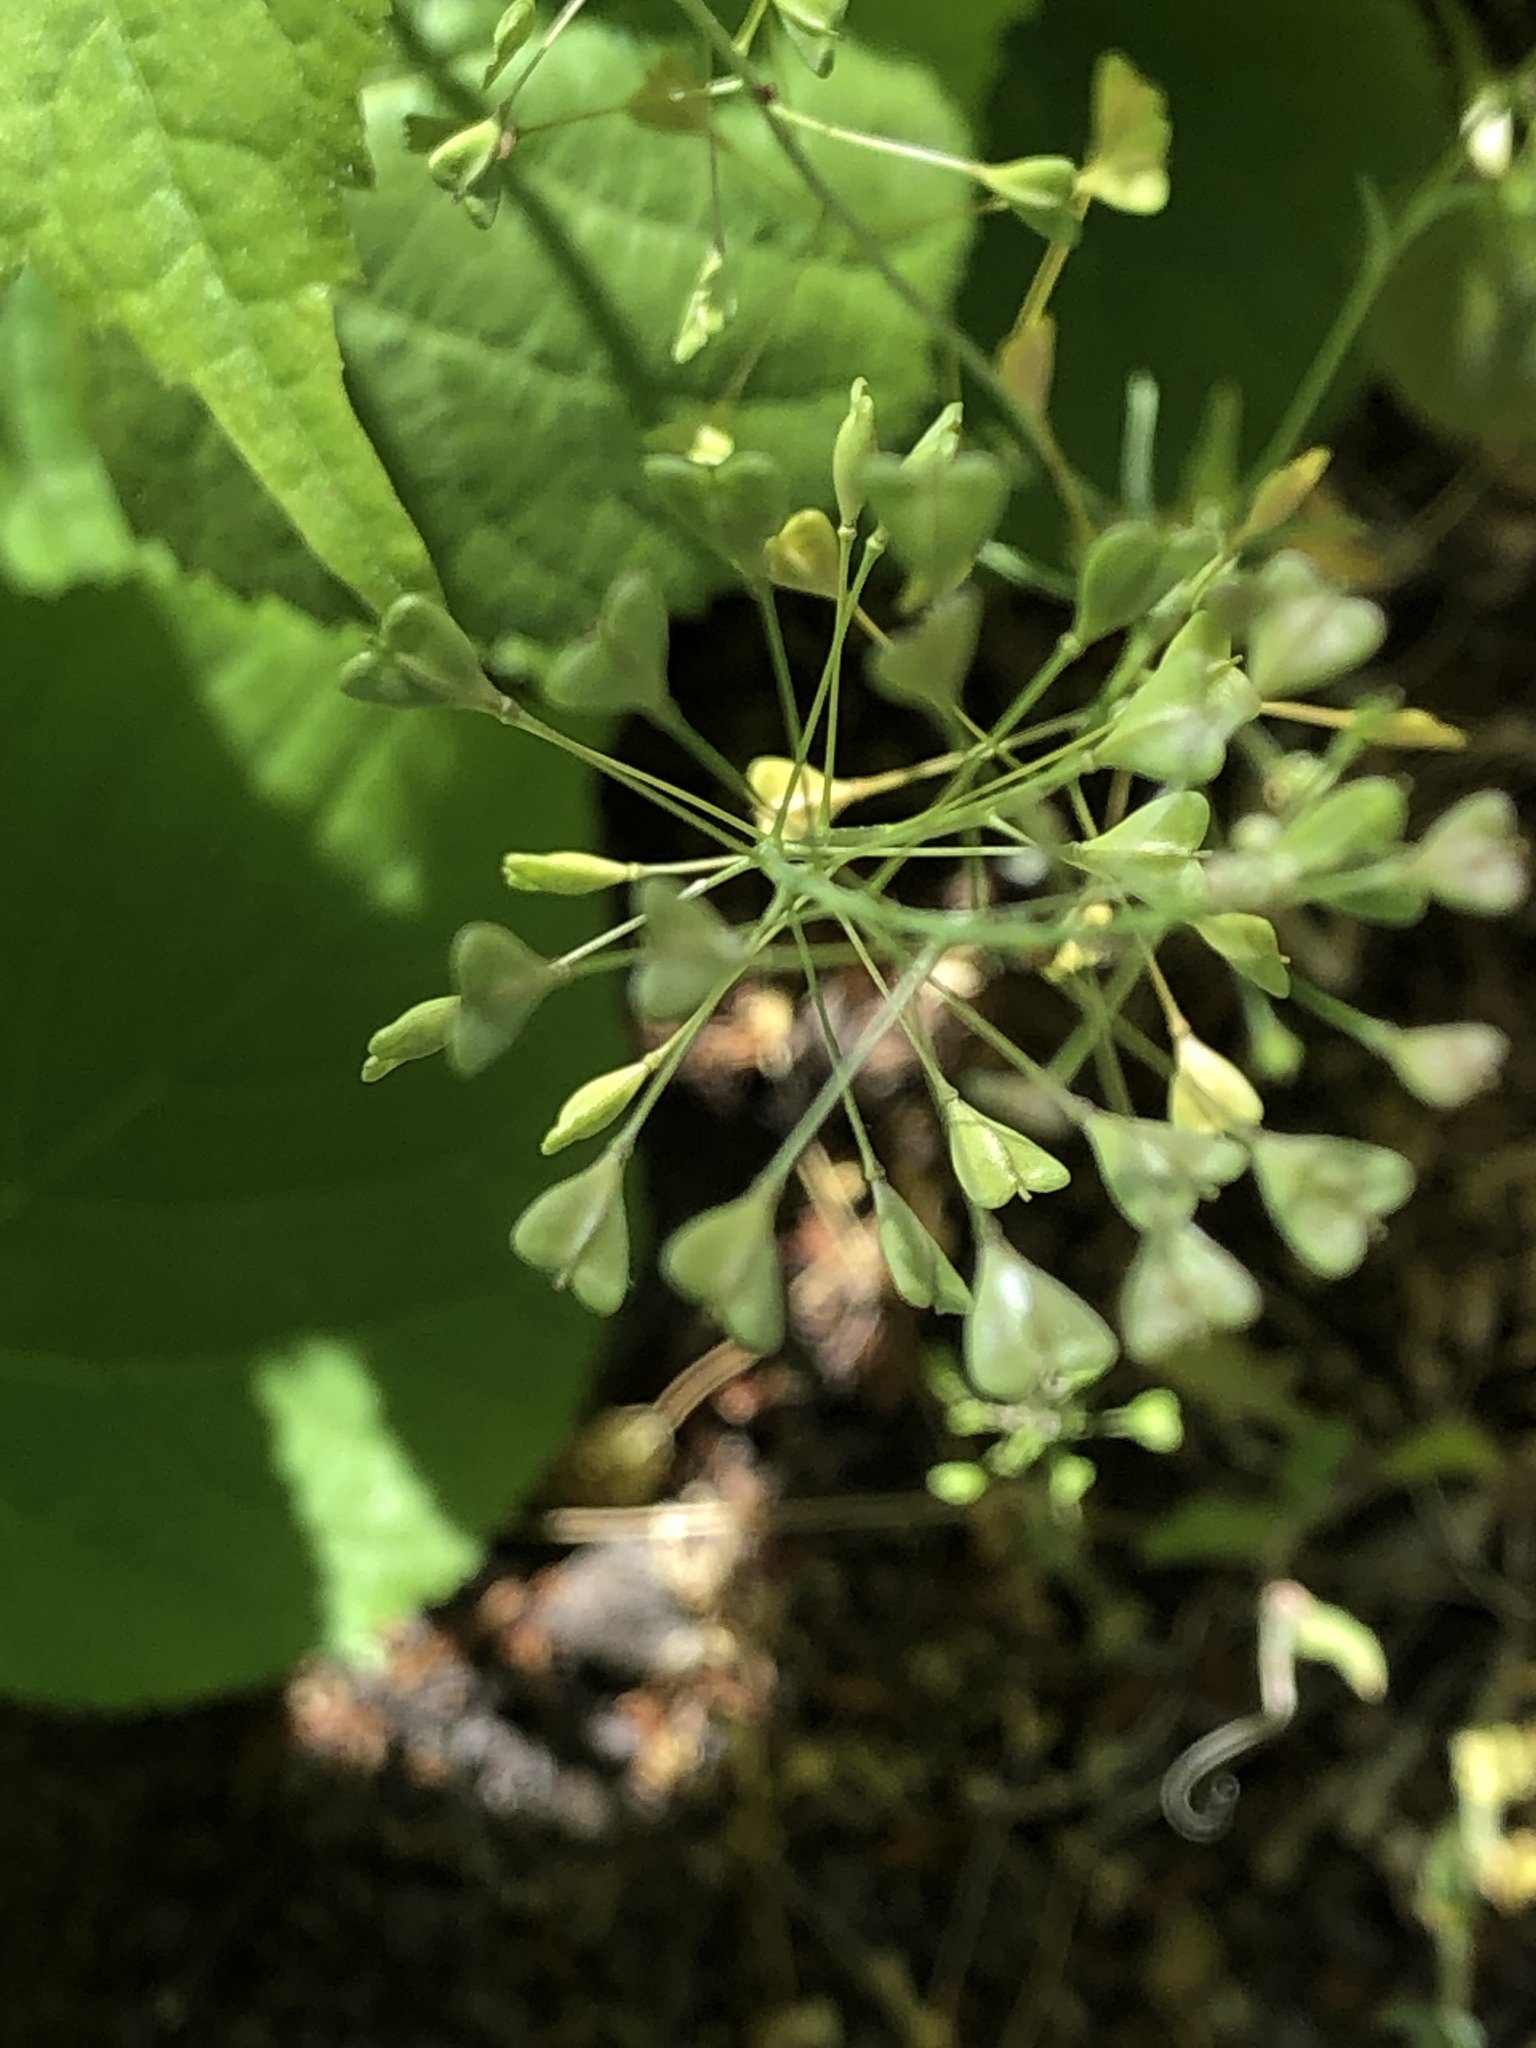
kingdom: Plantae
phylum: Tracheophyta
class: Magnoliopsida
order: Brassicales
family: Brassicaceae
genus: Capsella
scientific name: Capsella bursa-pastoris
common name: Shepherd's purse
